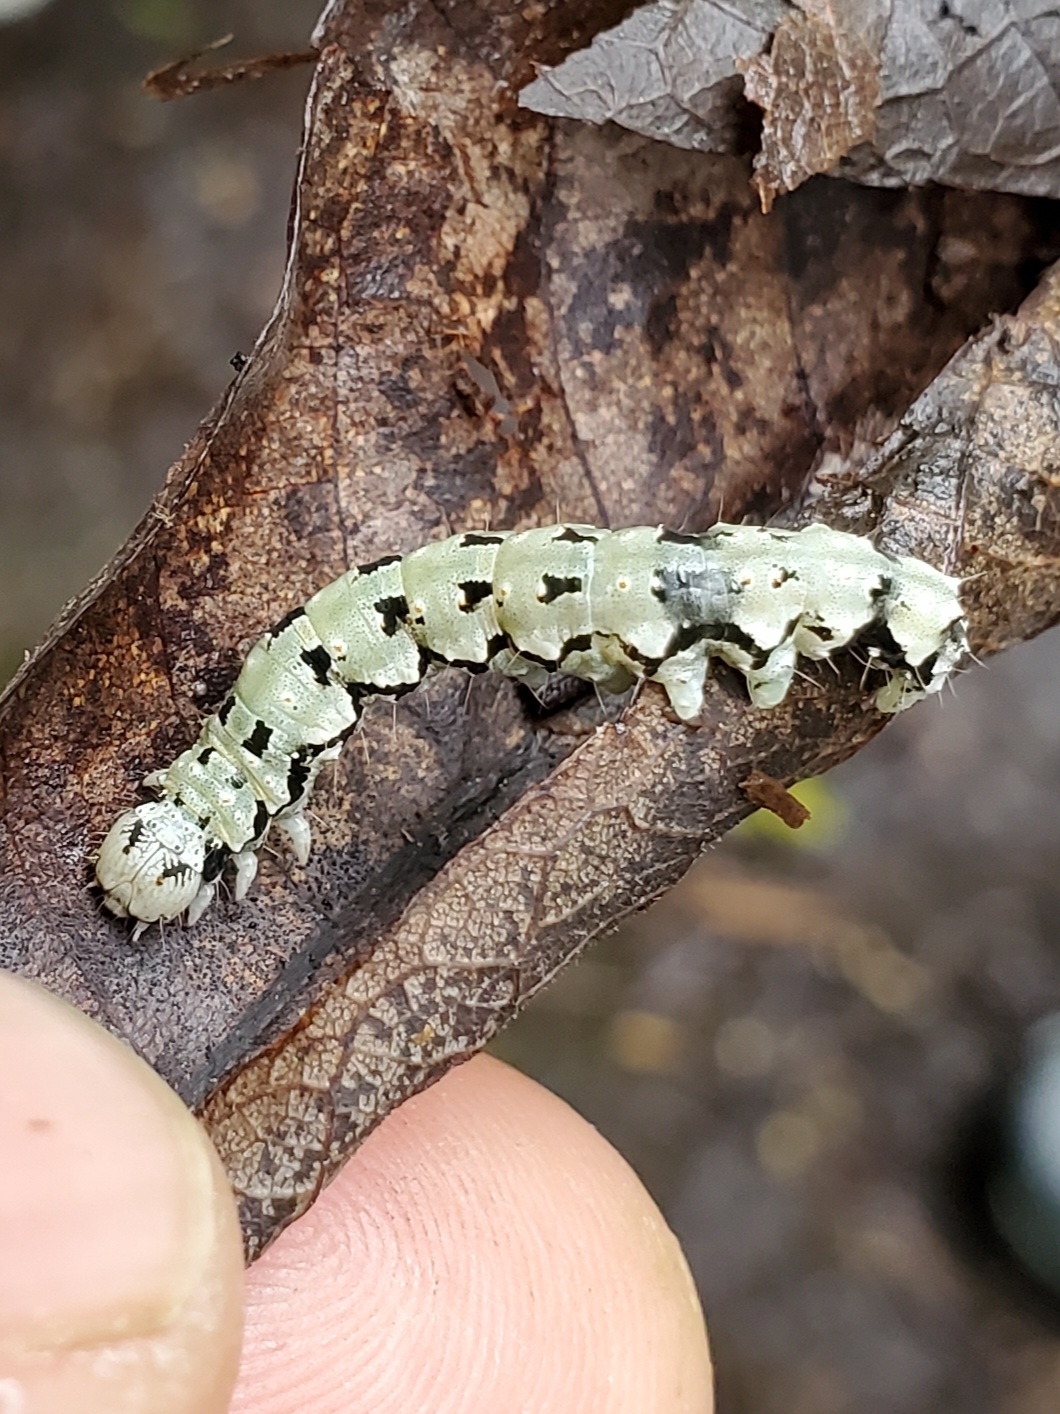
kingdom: Animalia
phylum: Arthropoda
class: Insecta
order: Lepidoptera
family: Erebidae
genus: Catocala
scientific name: Catocala ilia
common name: Ilia underwing
